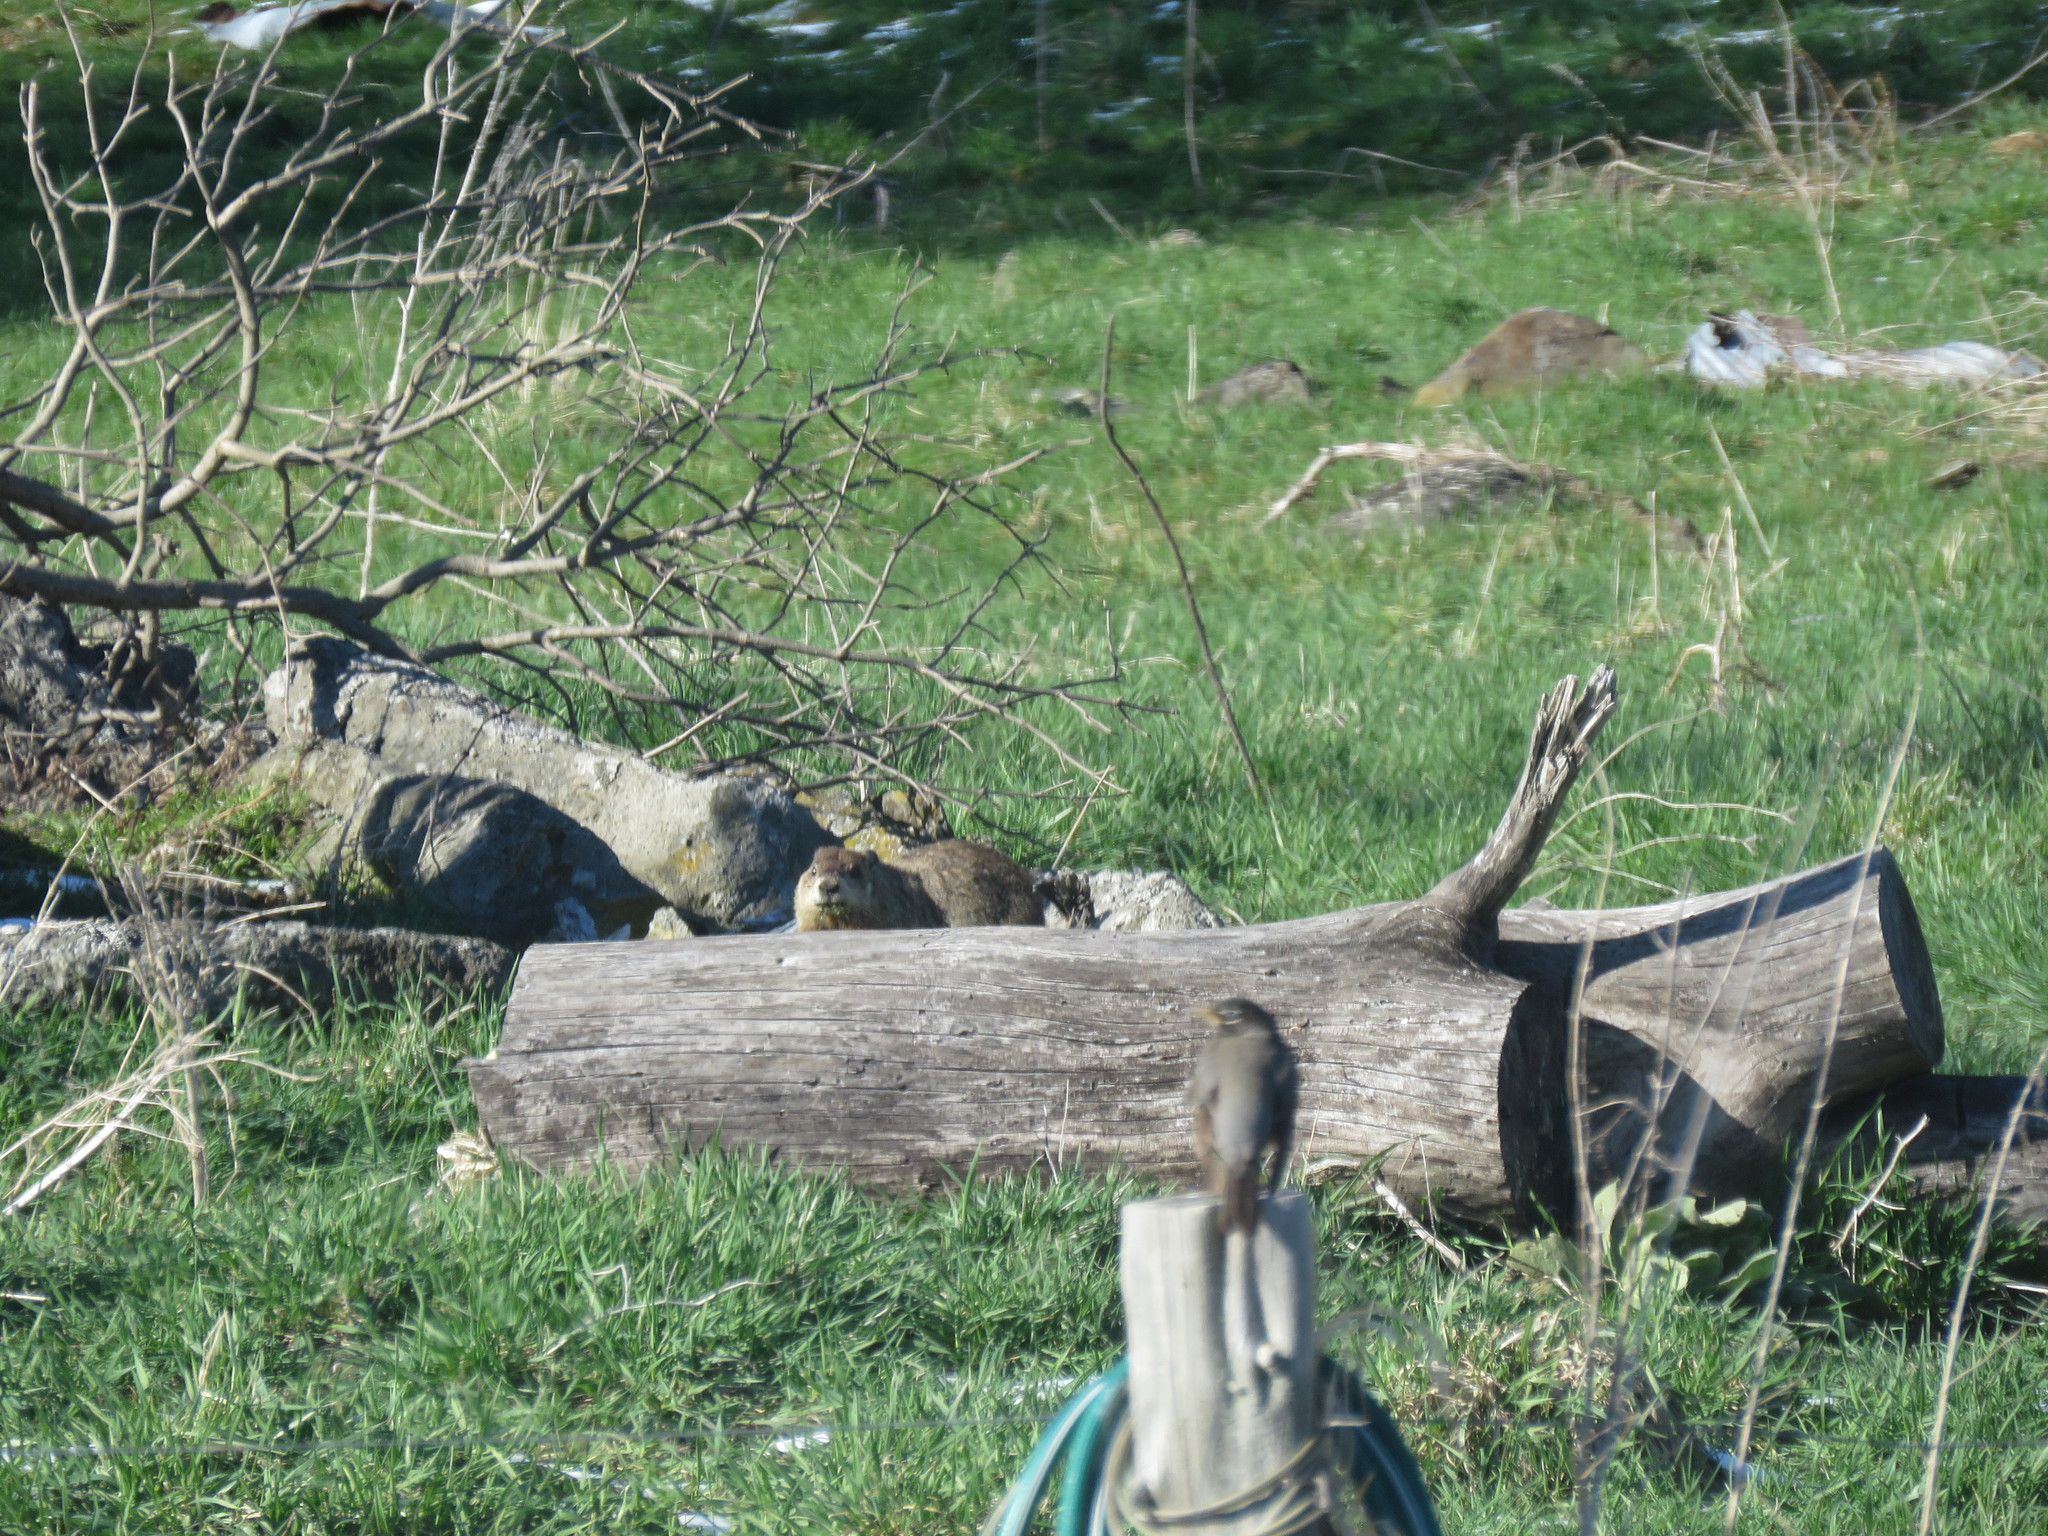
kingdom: Animalia
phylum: Chordata
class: Mammalia
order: Rodentia
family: Sciuridae
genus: Marmota
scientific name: Marmota monax
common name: Groundhog
